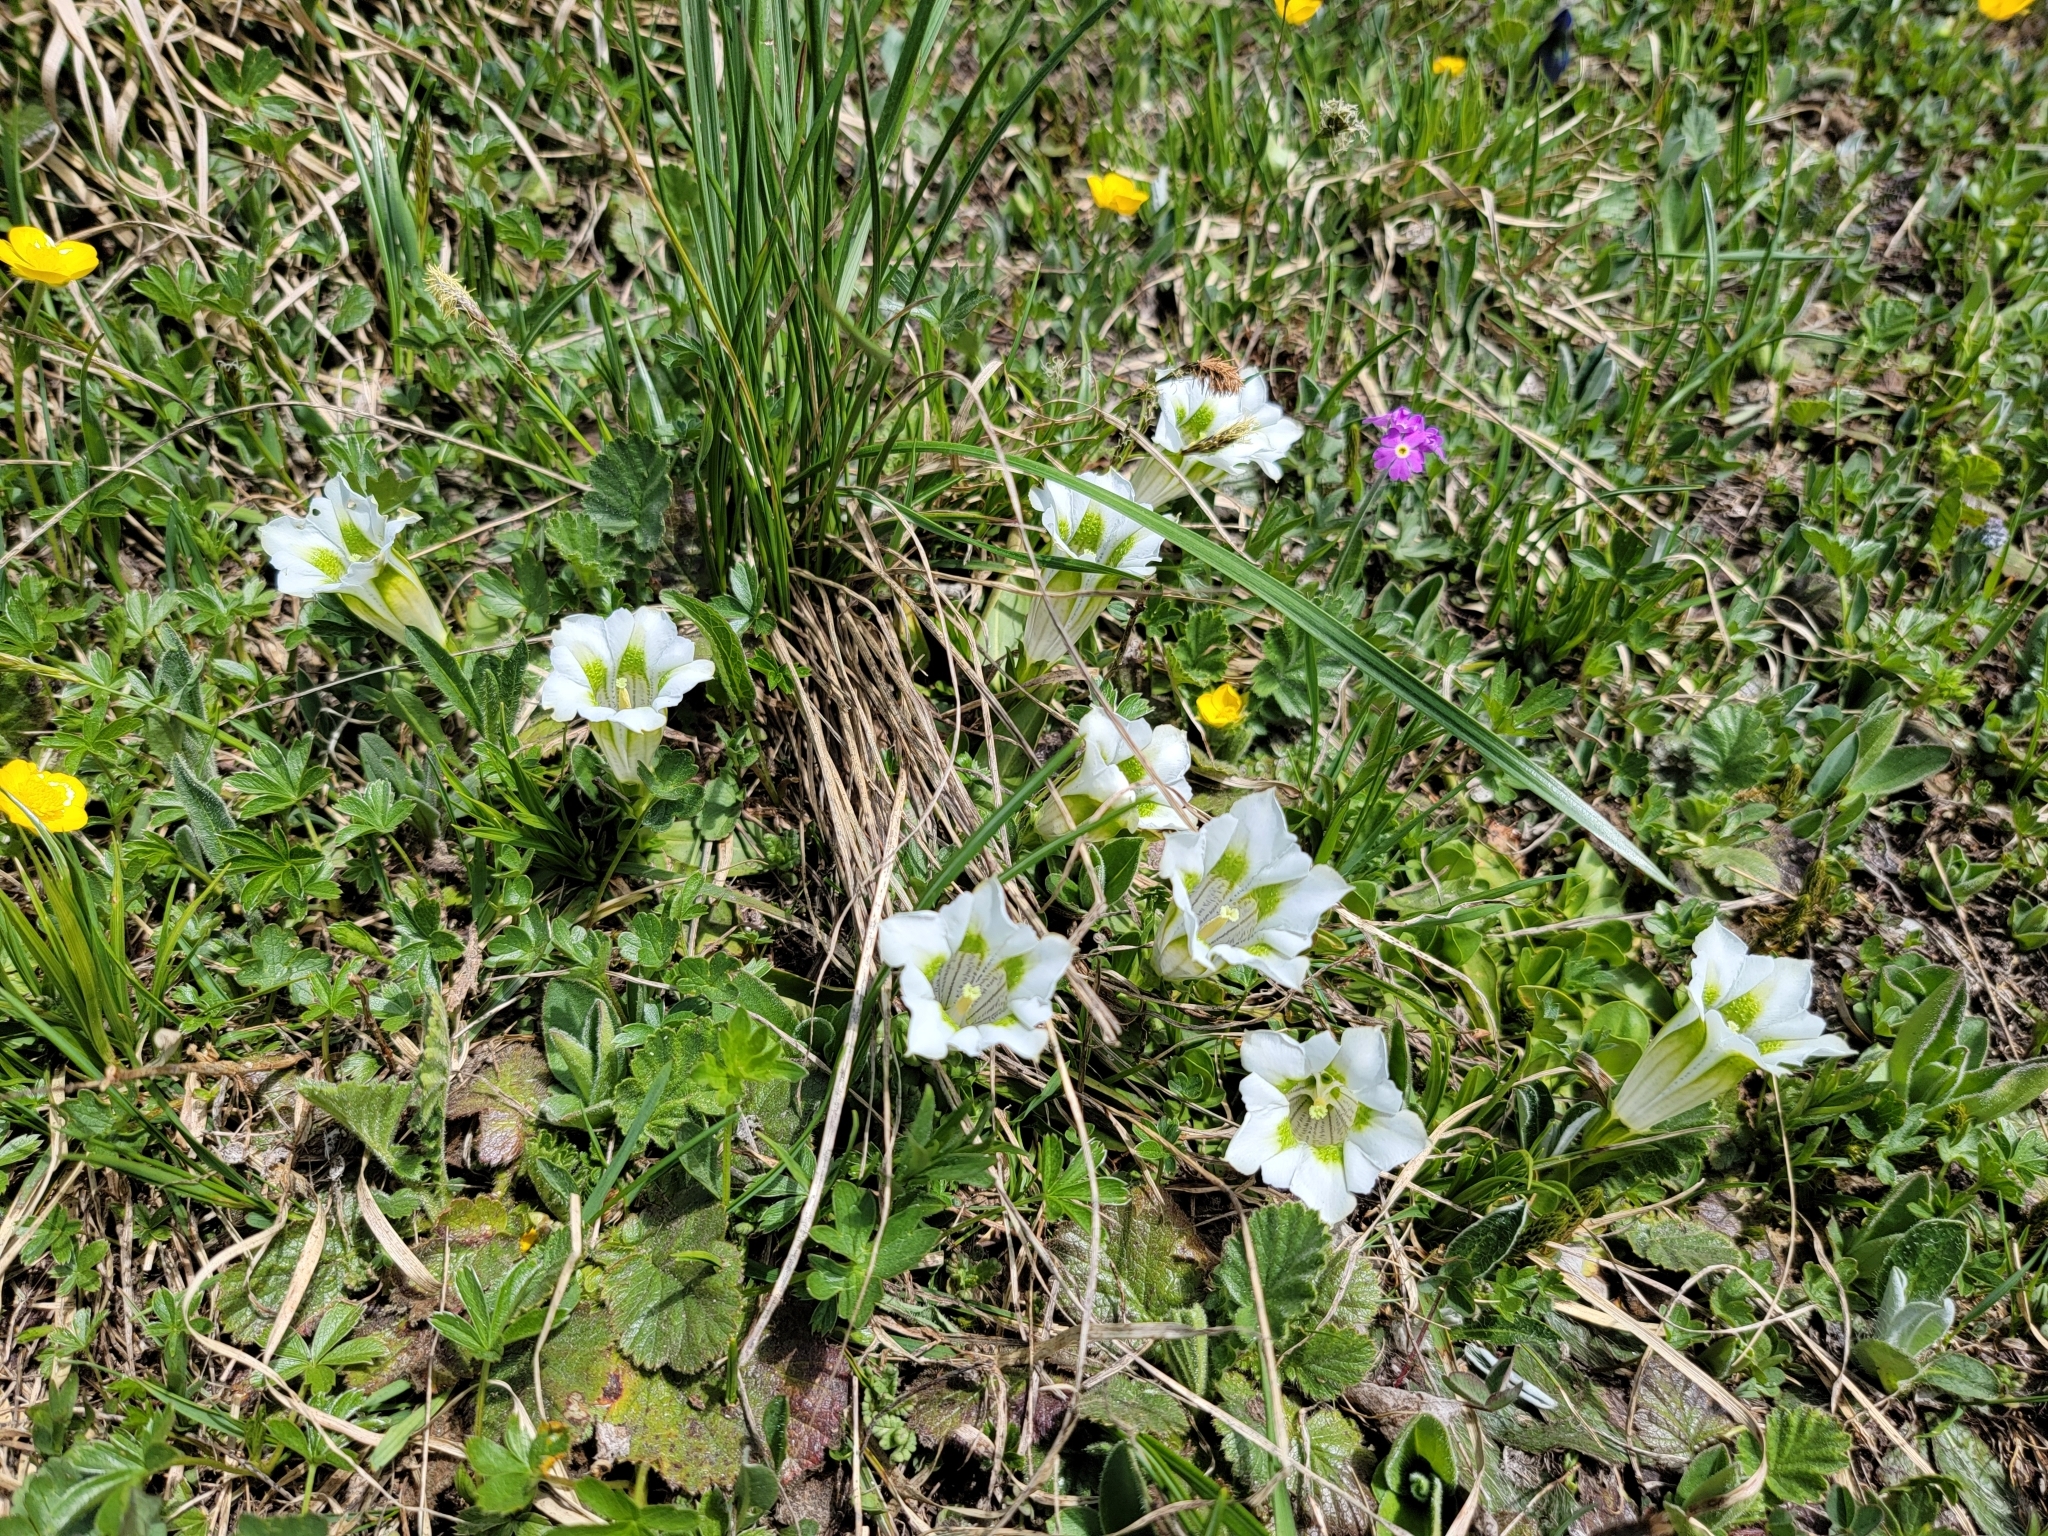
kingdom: Plantae
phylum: Tracheophyta
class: Magnoliopsida
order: Gentianales
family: Gentianaceae
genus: Gentiana
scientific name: Gentiana acaulis
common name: Trumpet gentian
